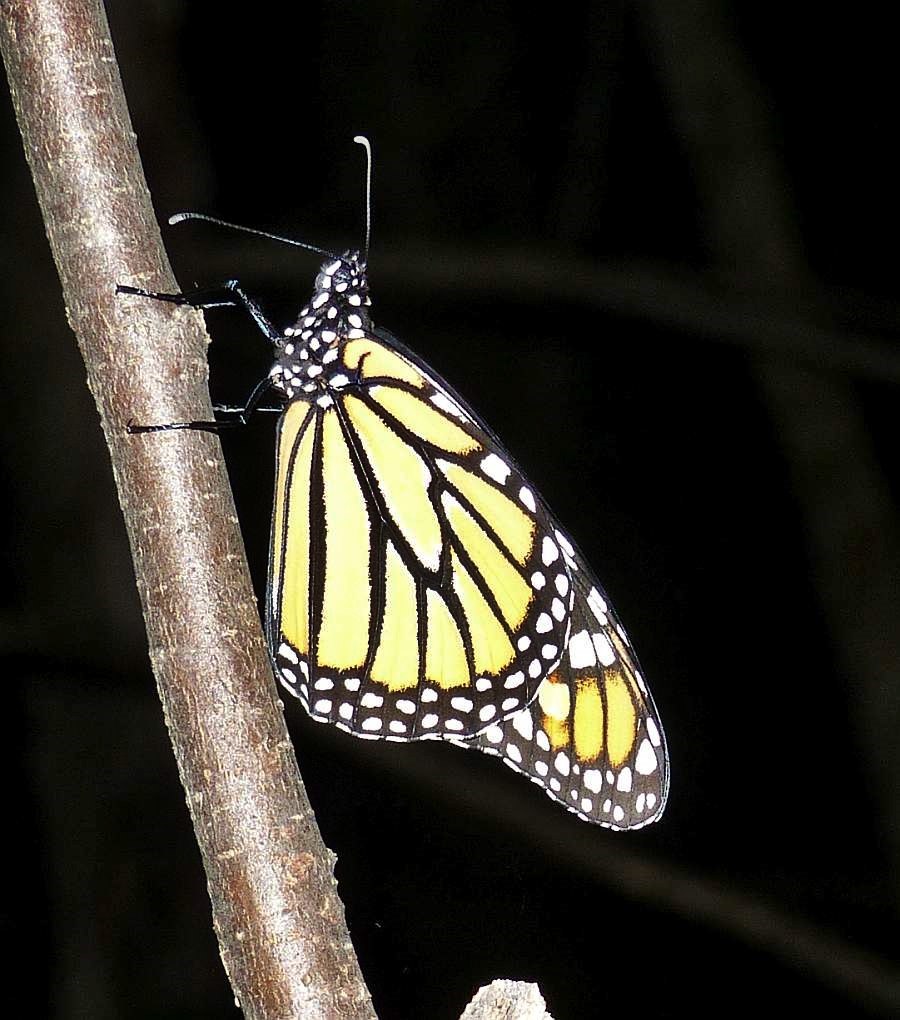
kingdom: Animalia
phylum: Arthropoda
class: Insecta
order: Lepidoptera
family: Nymphalidae
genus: Danaus
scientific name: Danaus plexippus
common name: Monarch
